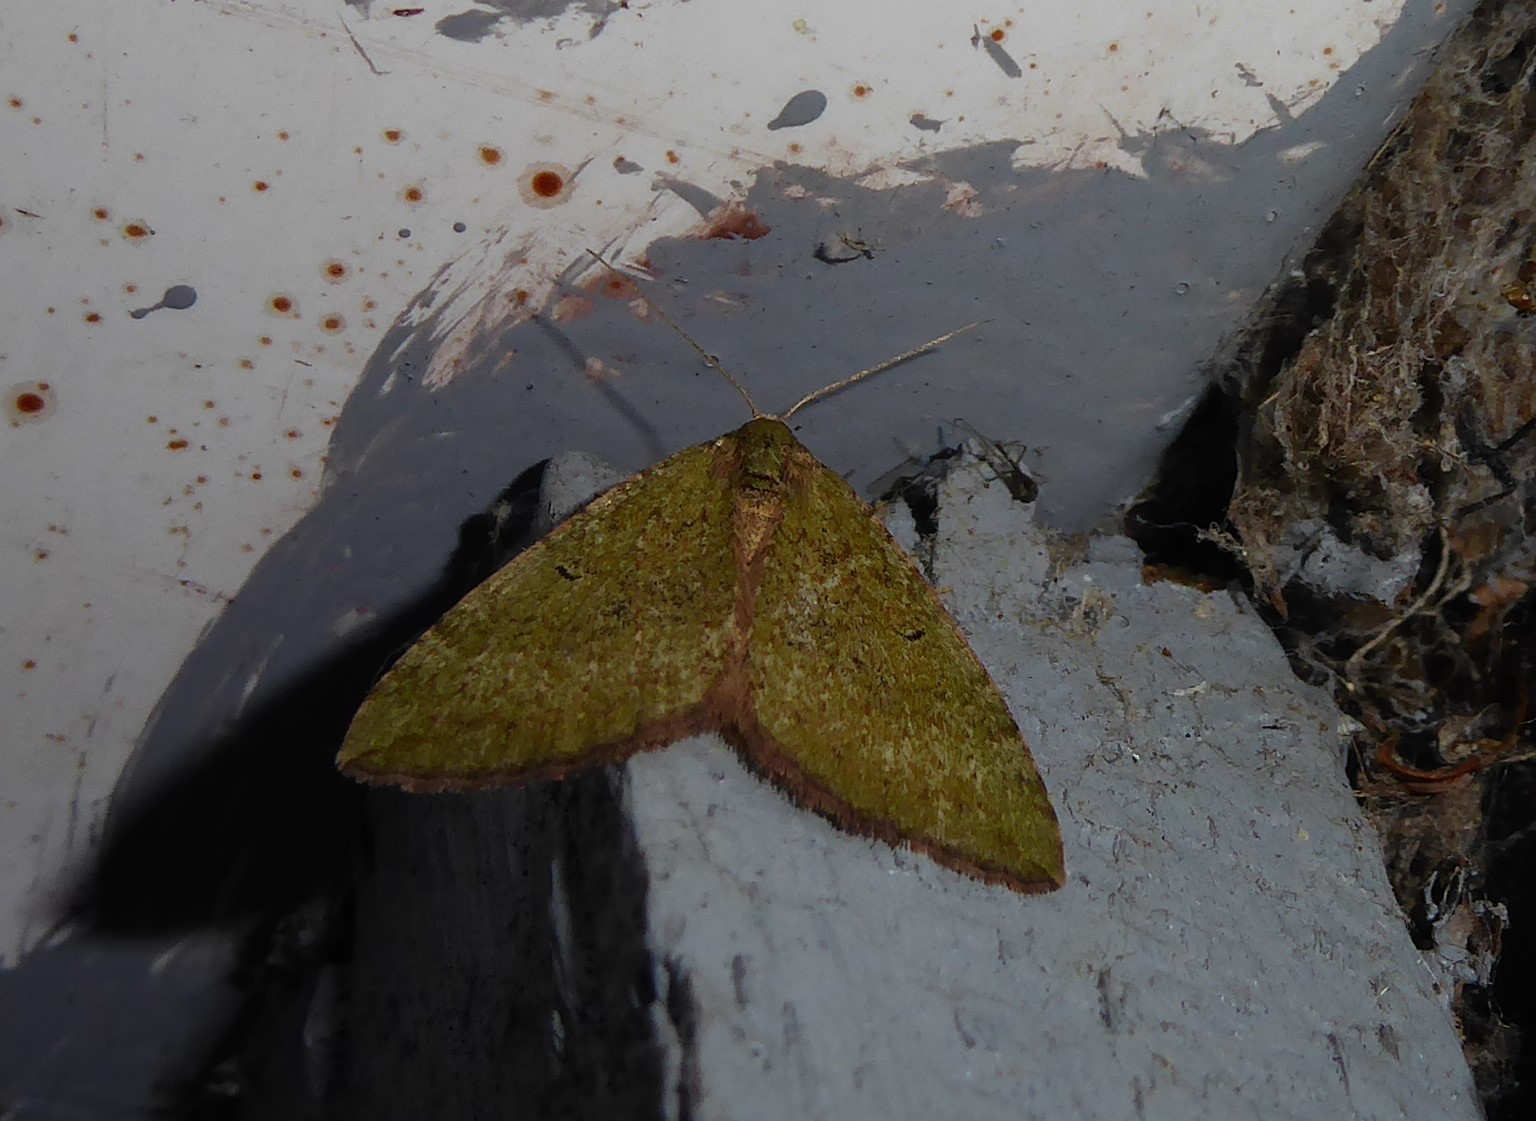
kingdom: Animalia
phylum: Arthropoda
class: Insecta
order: Lepidoptera
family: Geometridae
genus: Epyaxa
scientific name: Epyaxa rosearia
